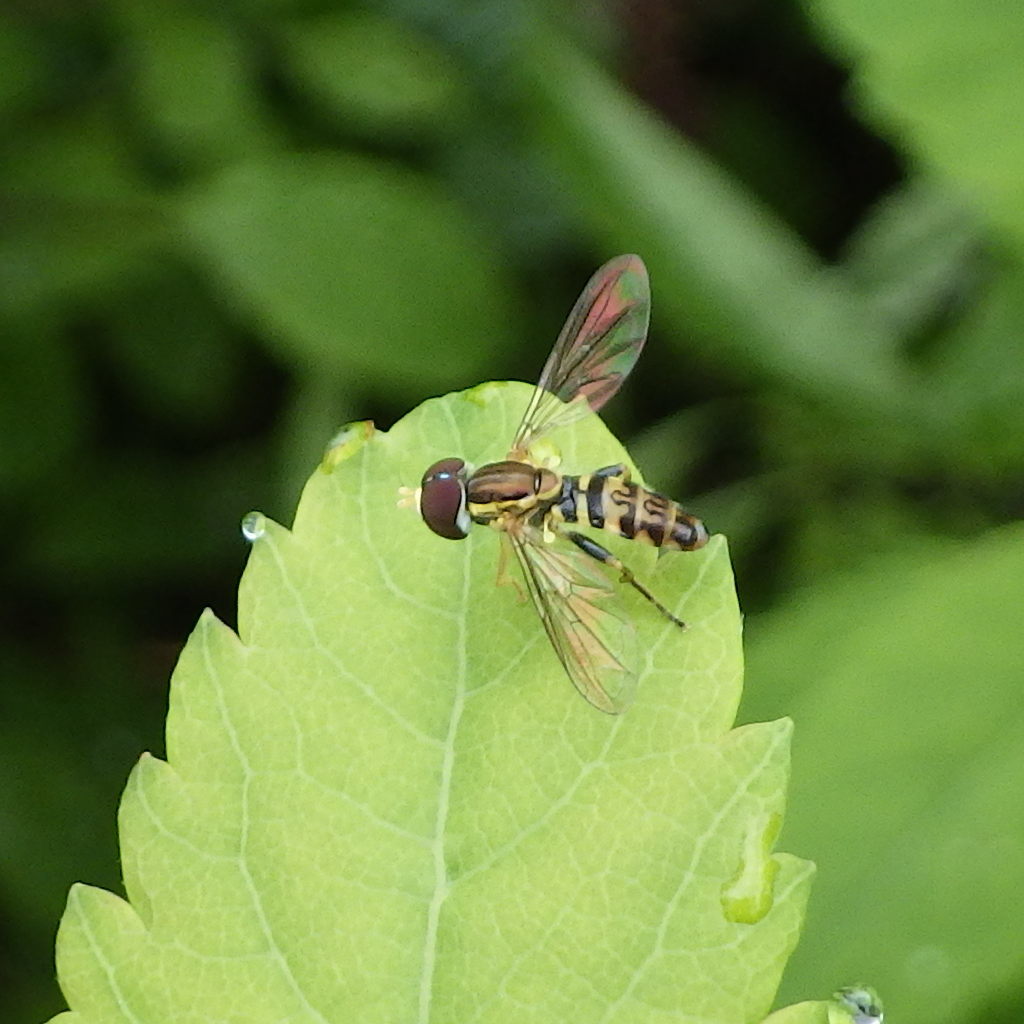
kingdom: Animalia
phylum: Arthropoda
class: Insecta
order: Diptera
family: Syrphidae
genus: Toxomerus
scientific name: Toxomerus geminatus
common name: Eastern calligrapher
